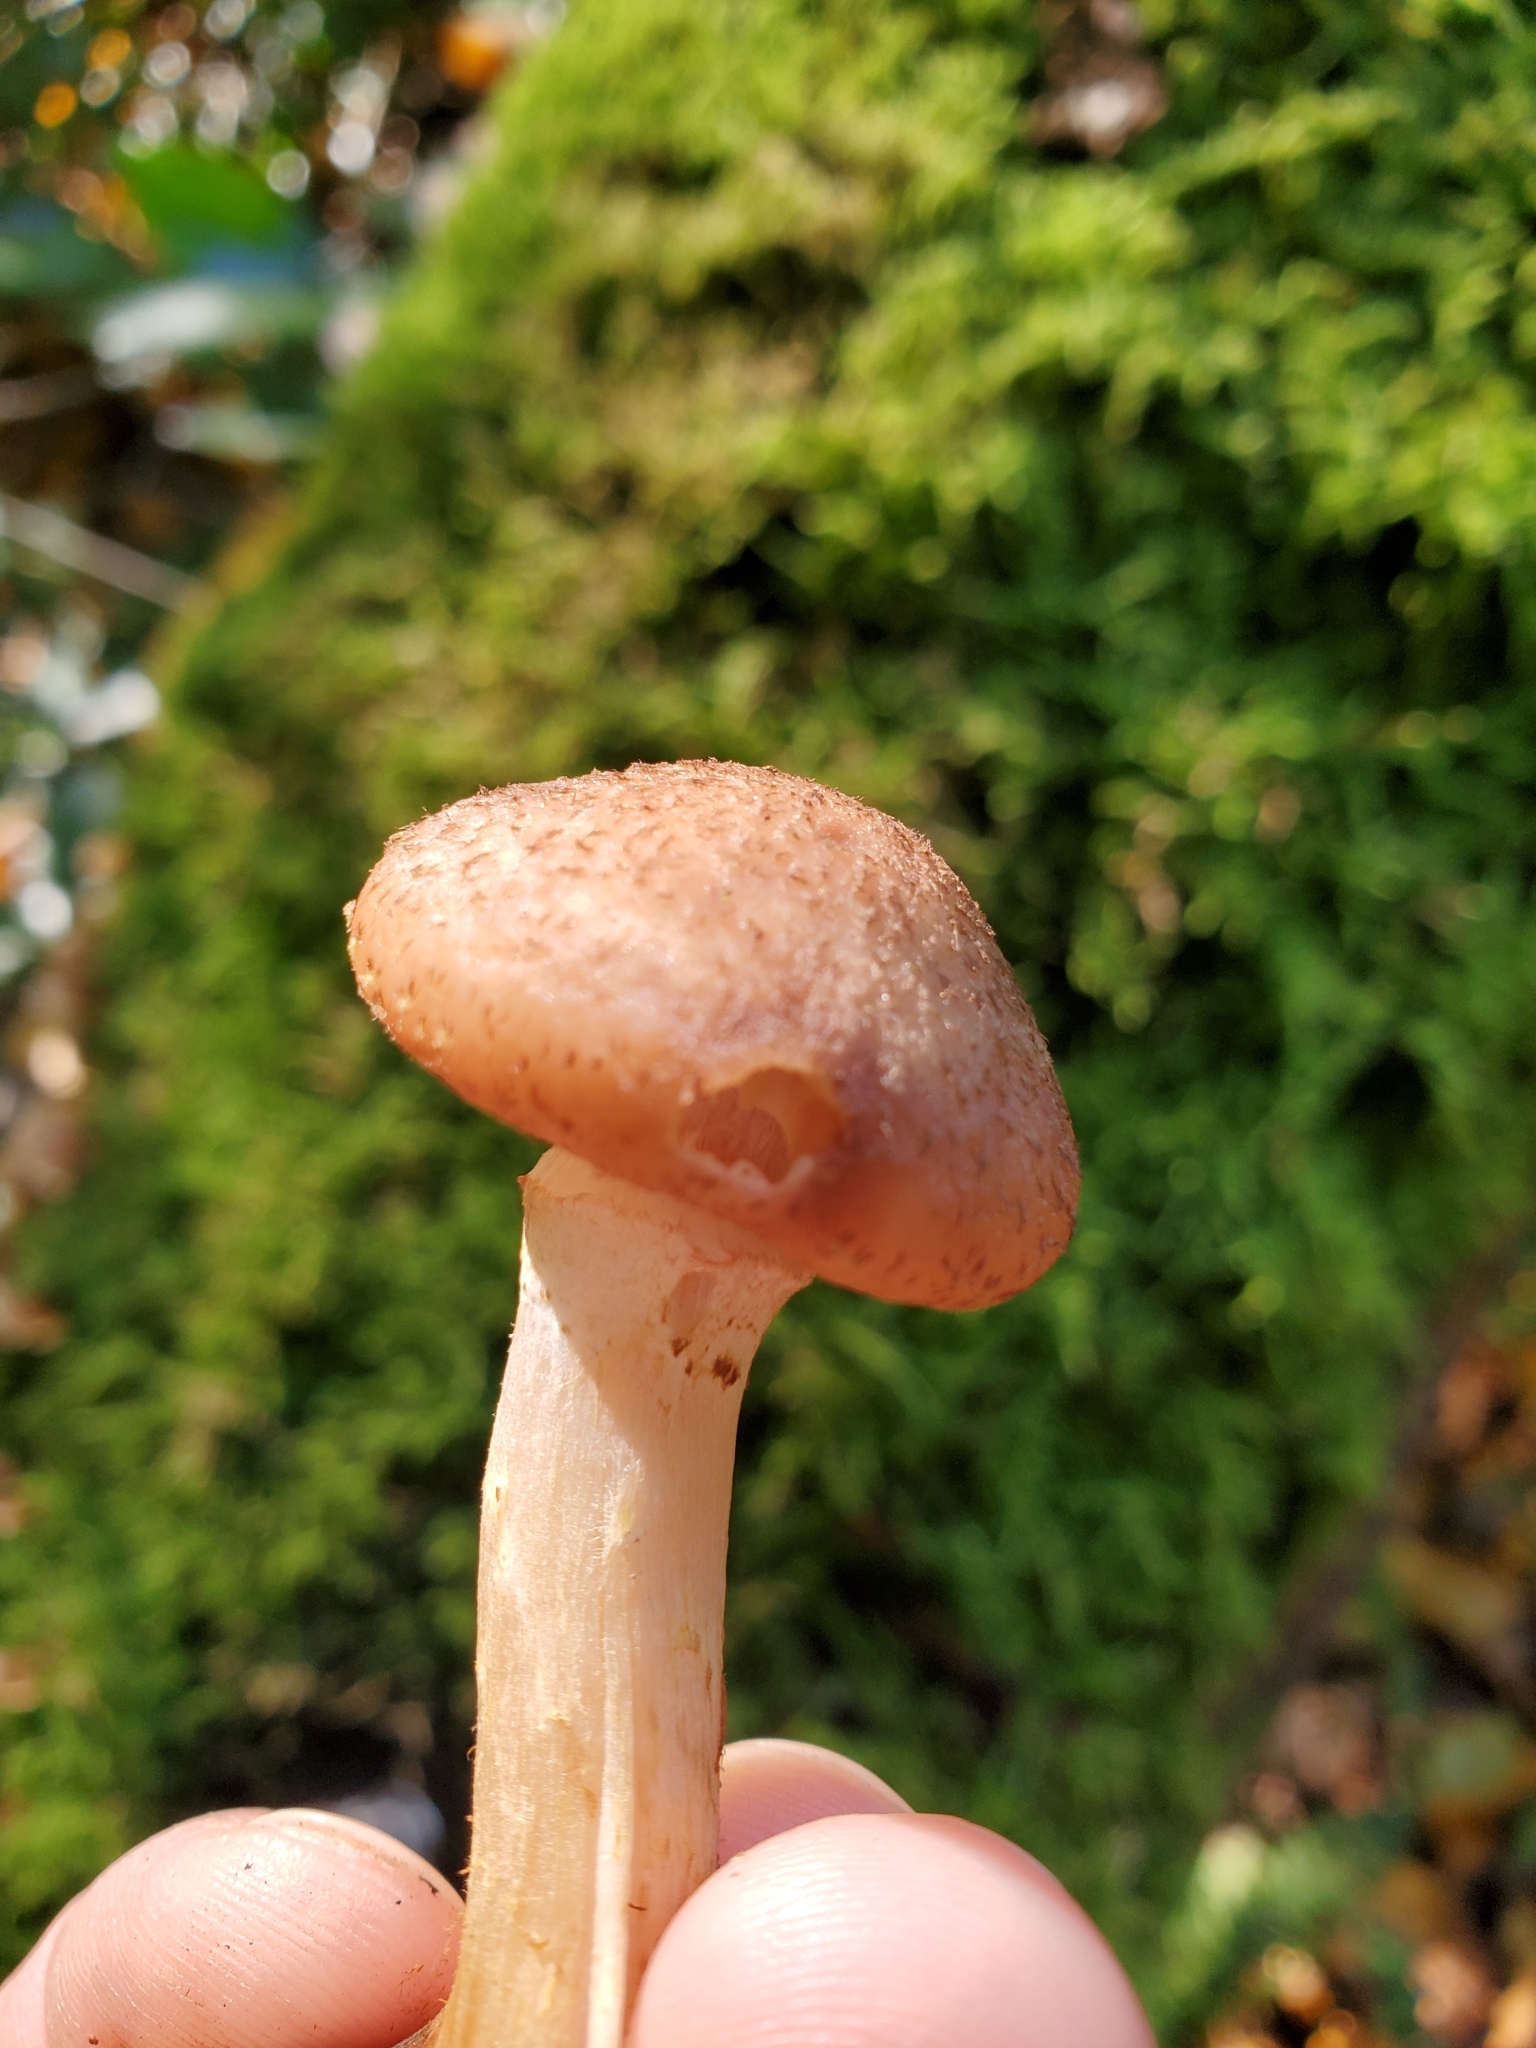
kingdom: Fungi
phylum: Basidiomycota
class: Agaricomycetes
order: Agaricales
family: Physalacriaceae
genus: Armillaria
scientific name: Armillaria gallica
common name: Bulbous honey fungus
